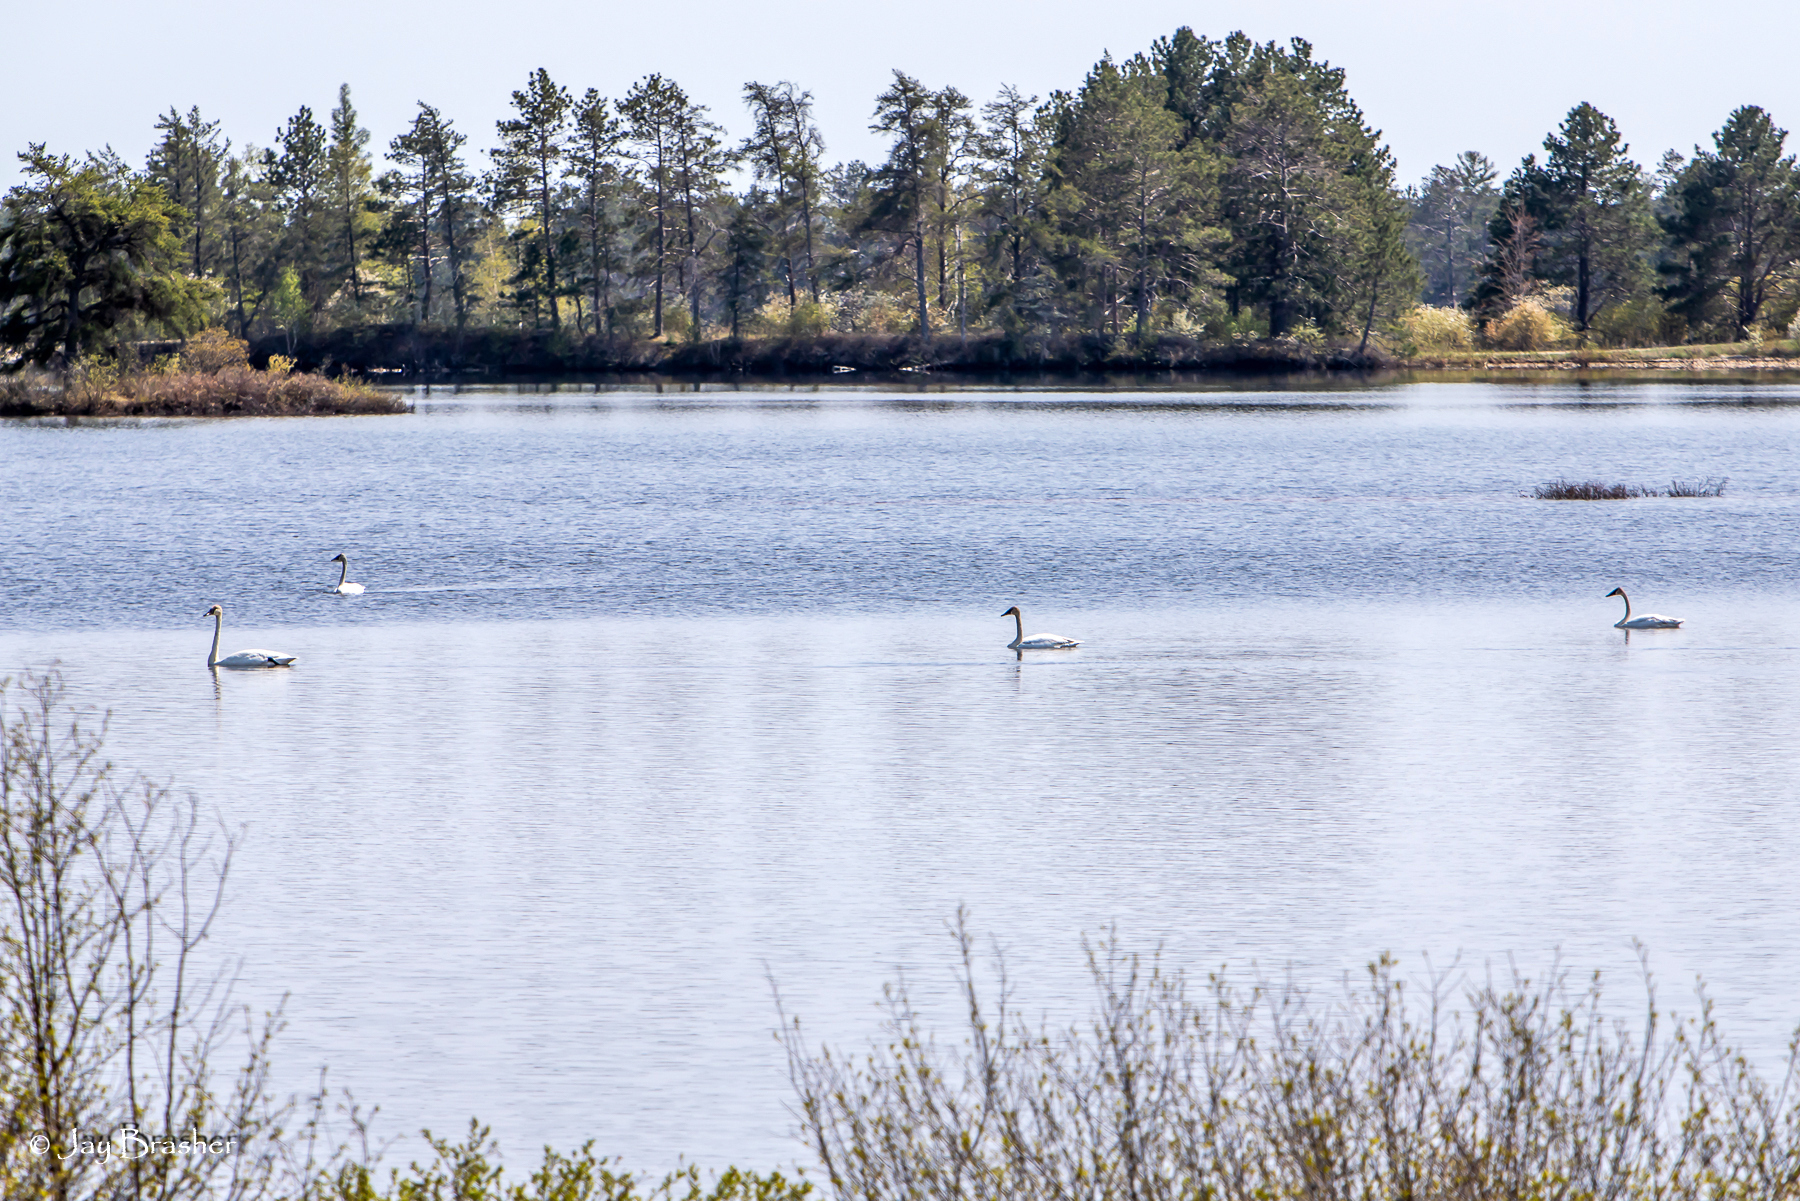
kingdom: Animalia
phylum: Chordata
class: Aves
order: Anseriformes
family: Anatidae
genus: Cygnus
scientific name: Cygnus buccinator
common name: Trumpeter swan
